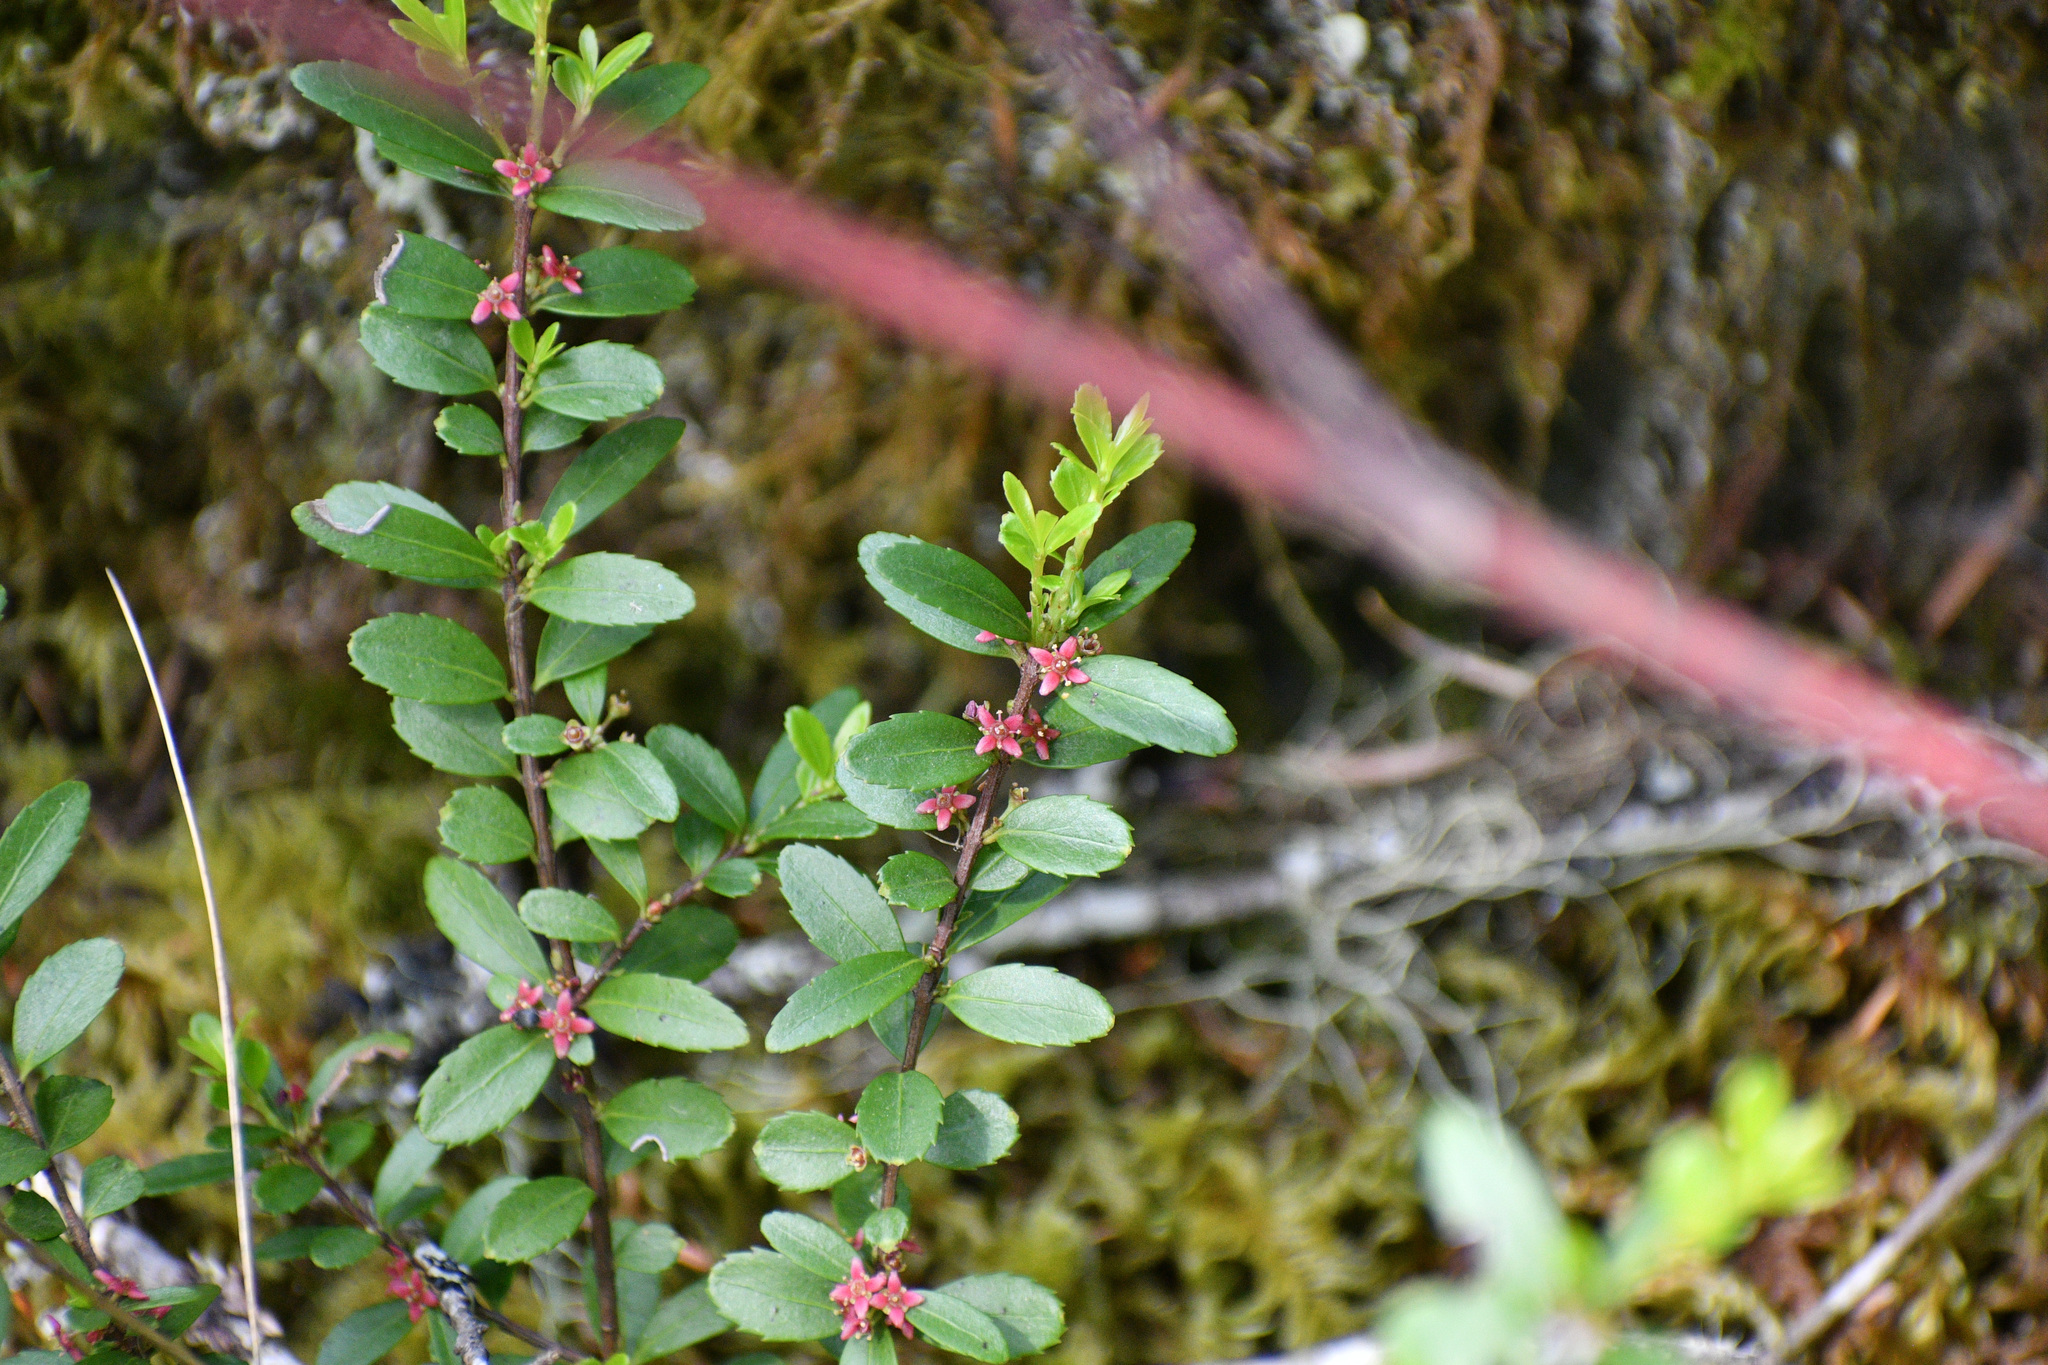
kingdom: Plantae
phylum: Tracheophyta
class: Magnoliopsida
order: Celastrales
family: Celastraceae
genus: Paxistima
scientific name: Paxistima myrsinites
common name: Mountain-lover
